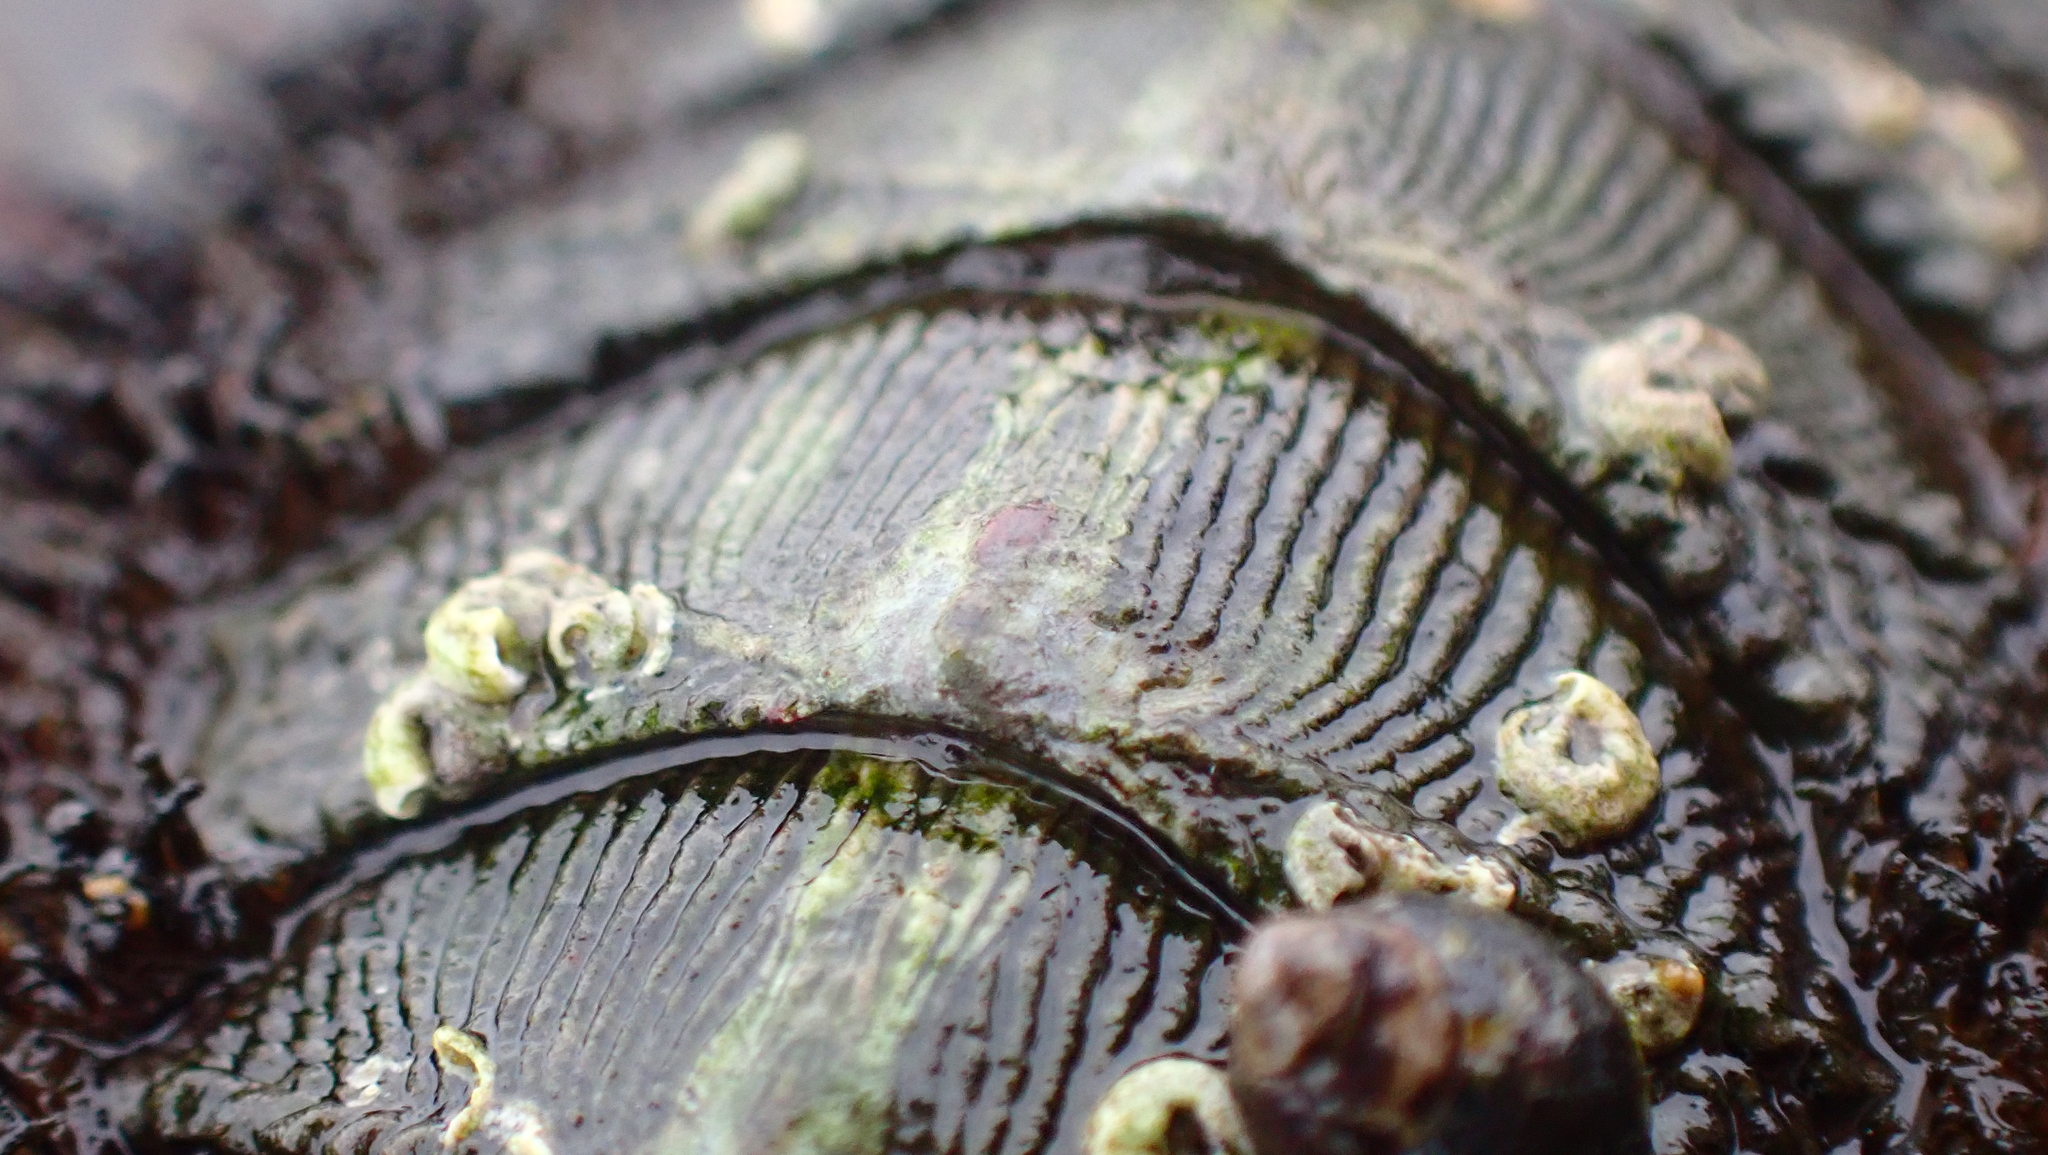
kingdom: Animalia
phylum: Mollusca
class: Polyplacophora
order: Chitonida
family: Mopaliidae
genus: Mopalia
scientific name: Mopalia muscosa
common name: Mossy chiton
